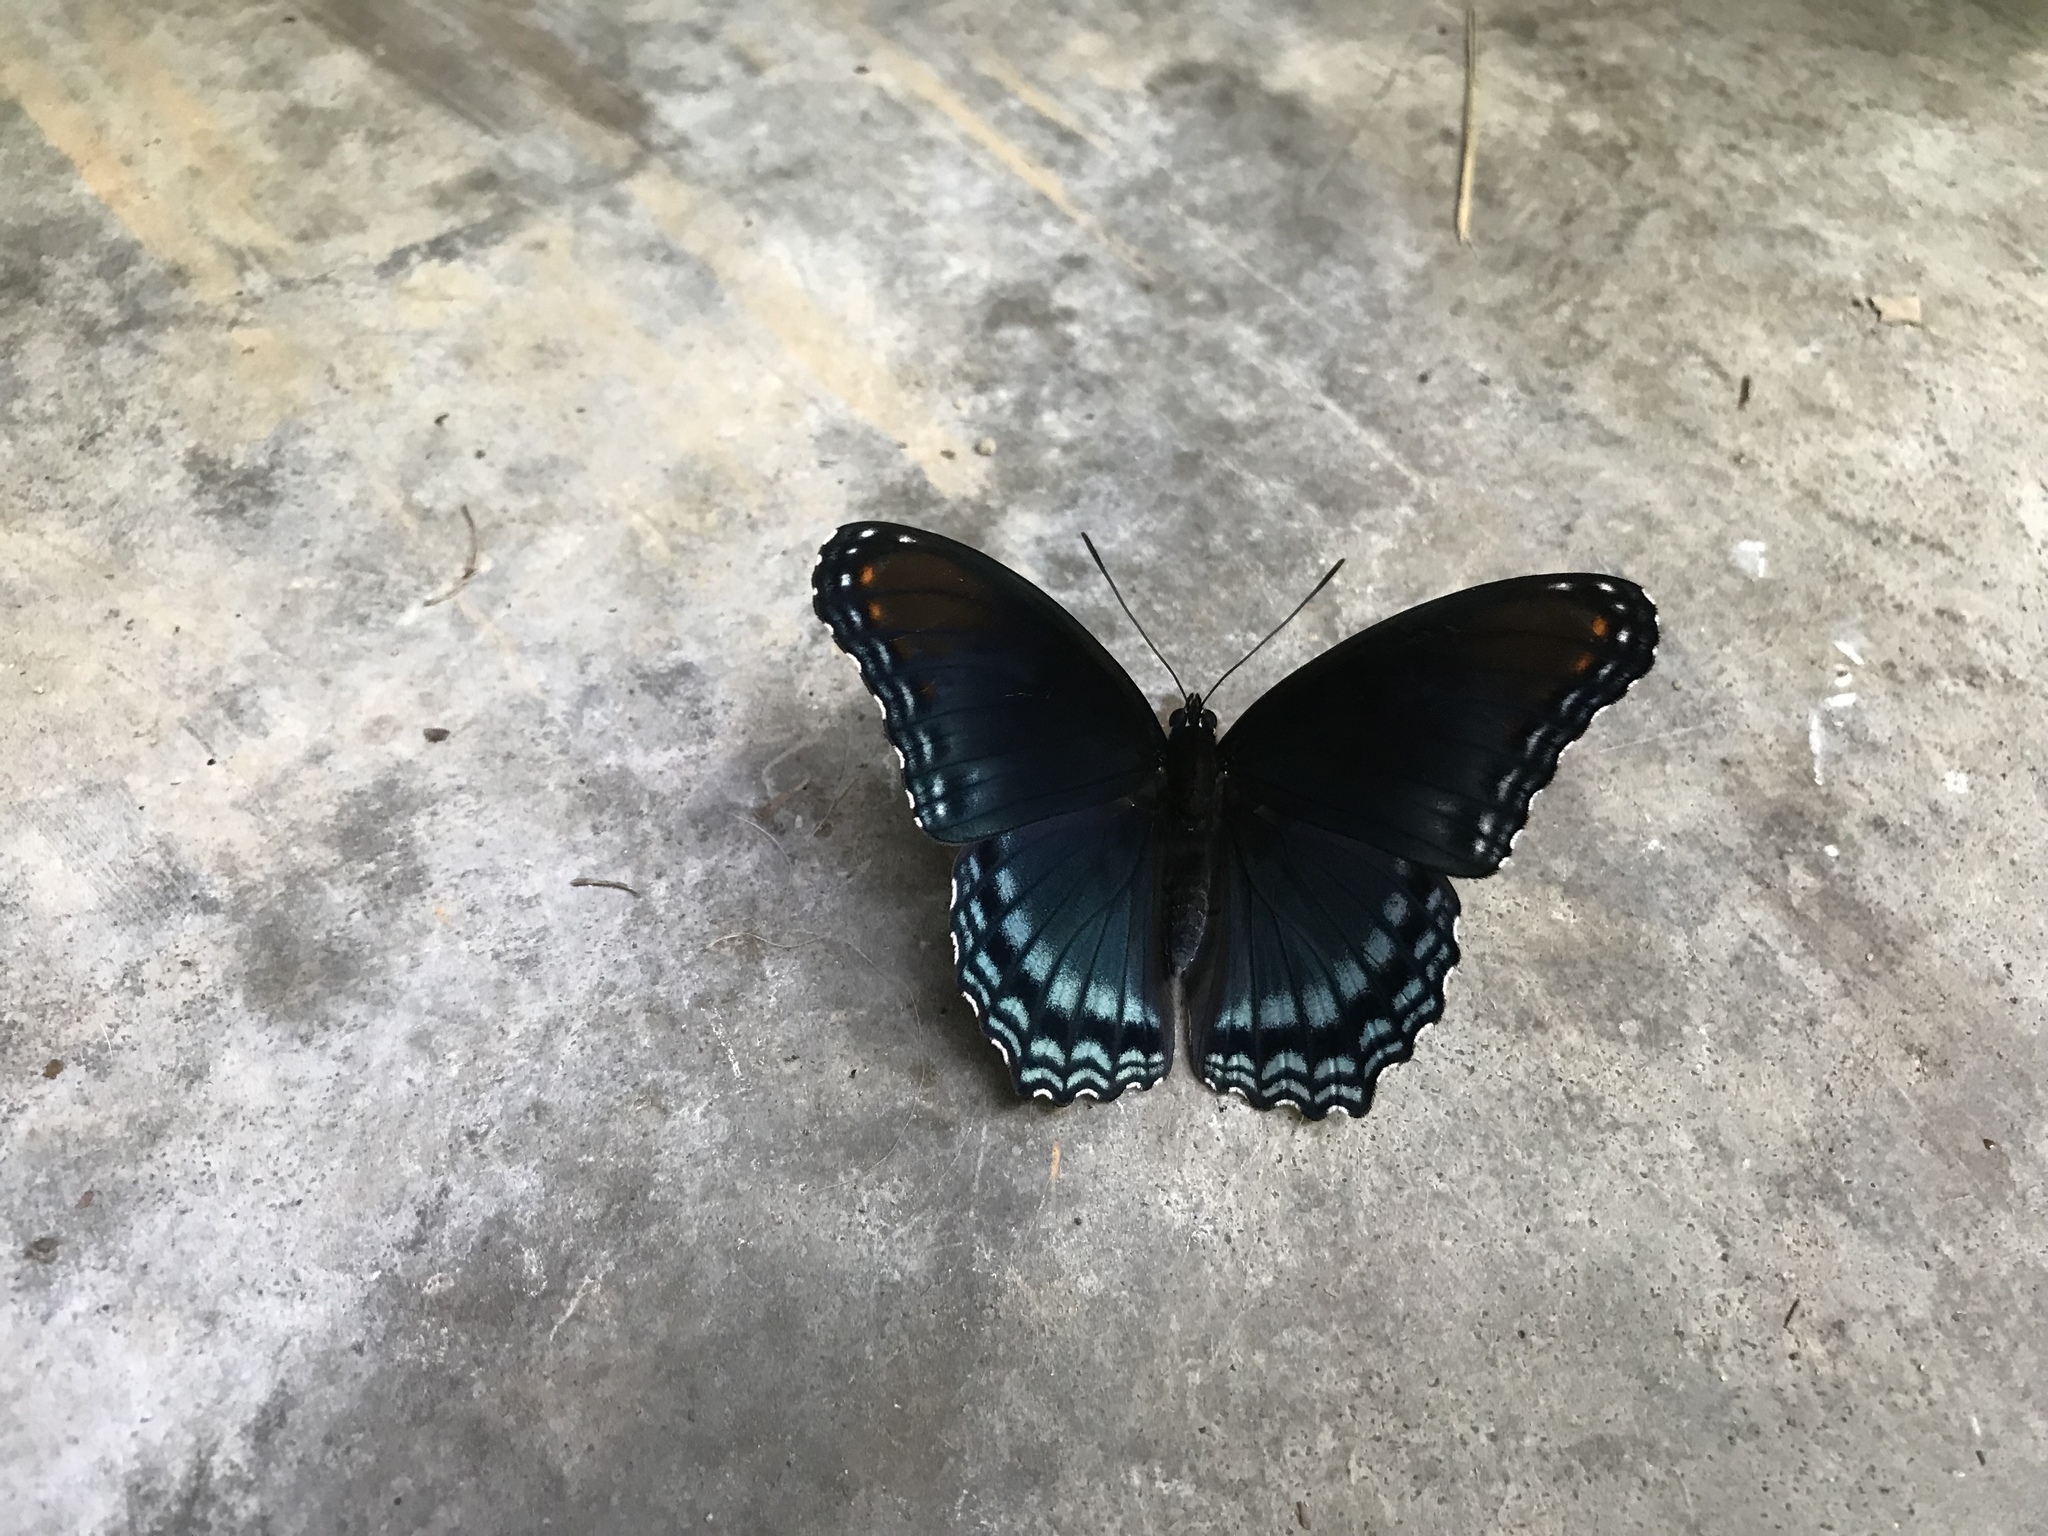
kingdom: Animalia
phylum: Arthropoda
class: Insecta
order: Lepidoptera
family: Nymphalidae
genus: Limenitis
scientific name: Limenitis astyanax
